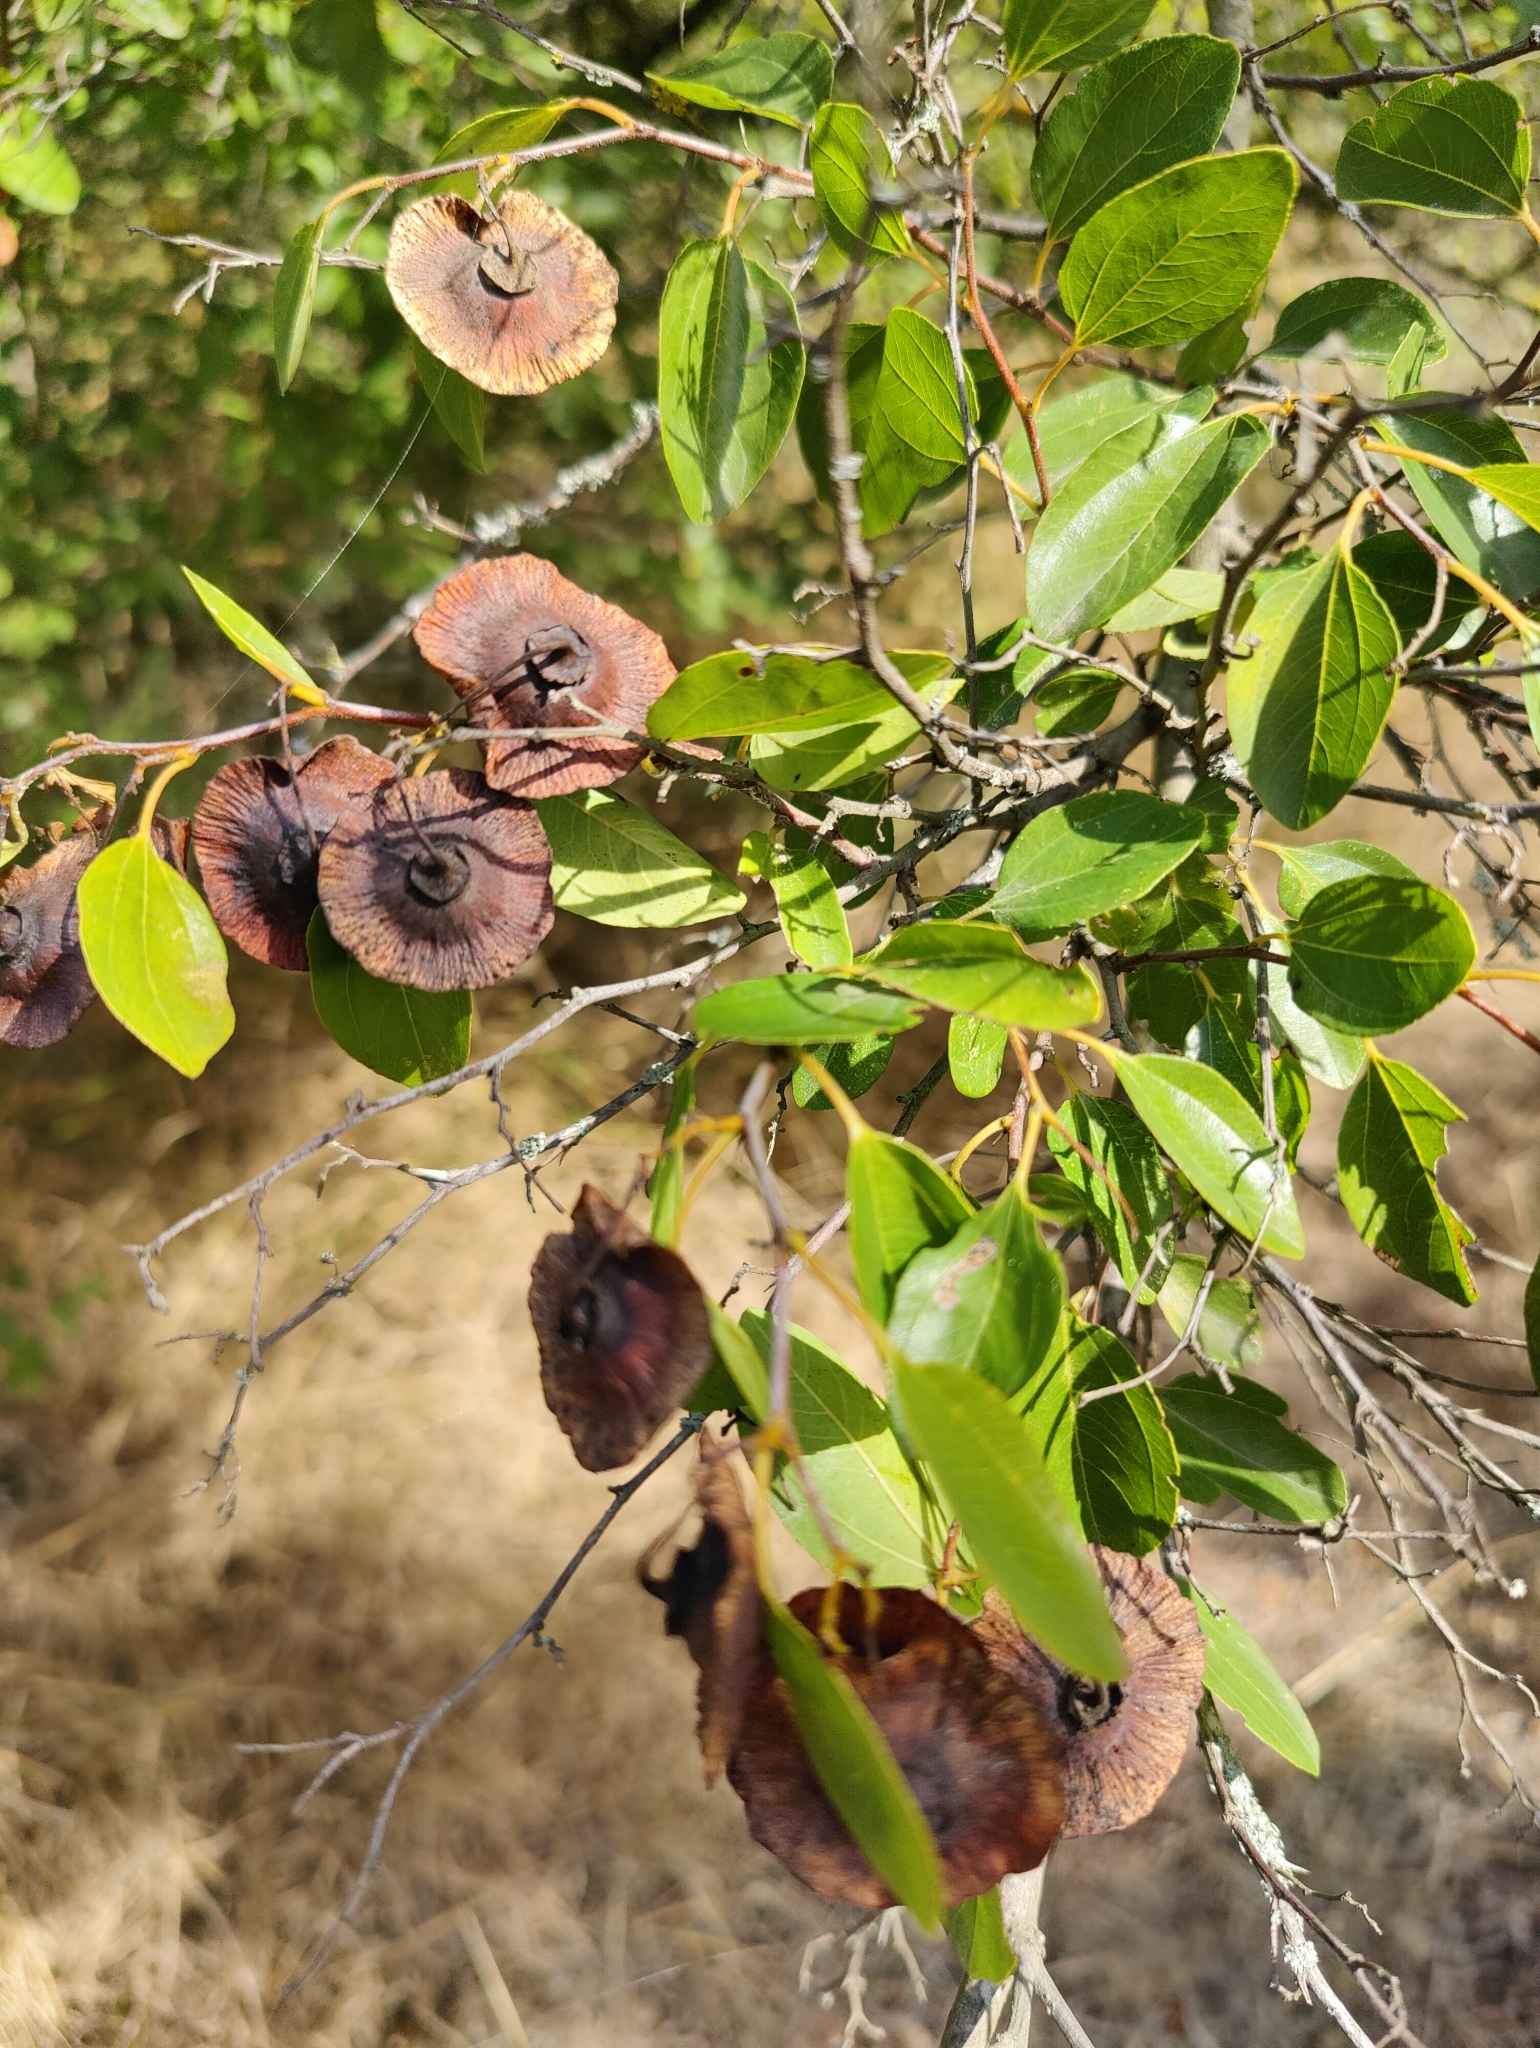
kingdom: Plantae
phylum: Tracheophyta
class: Magnoliopsida
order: Rosales
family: Rhamnaceae
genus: Paliurus
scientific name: Paliurus spina-christi
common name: Jeruselem thorn
